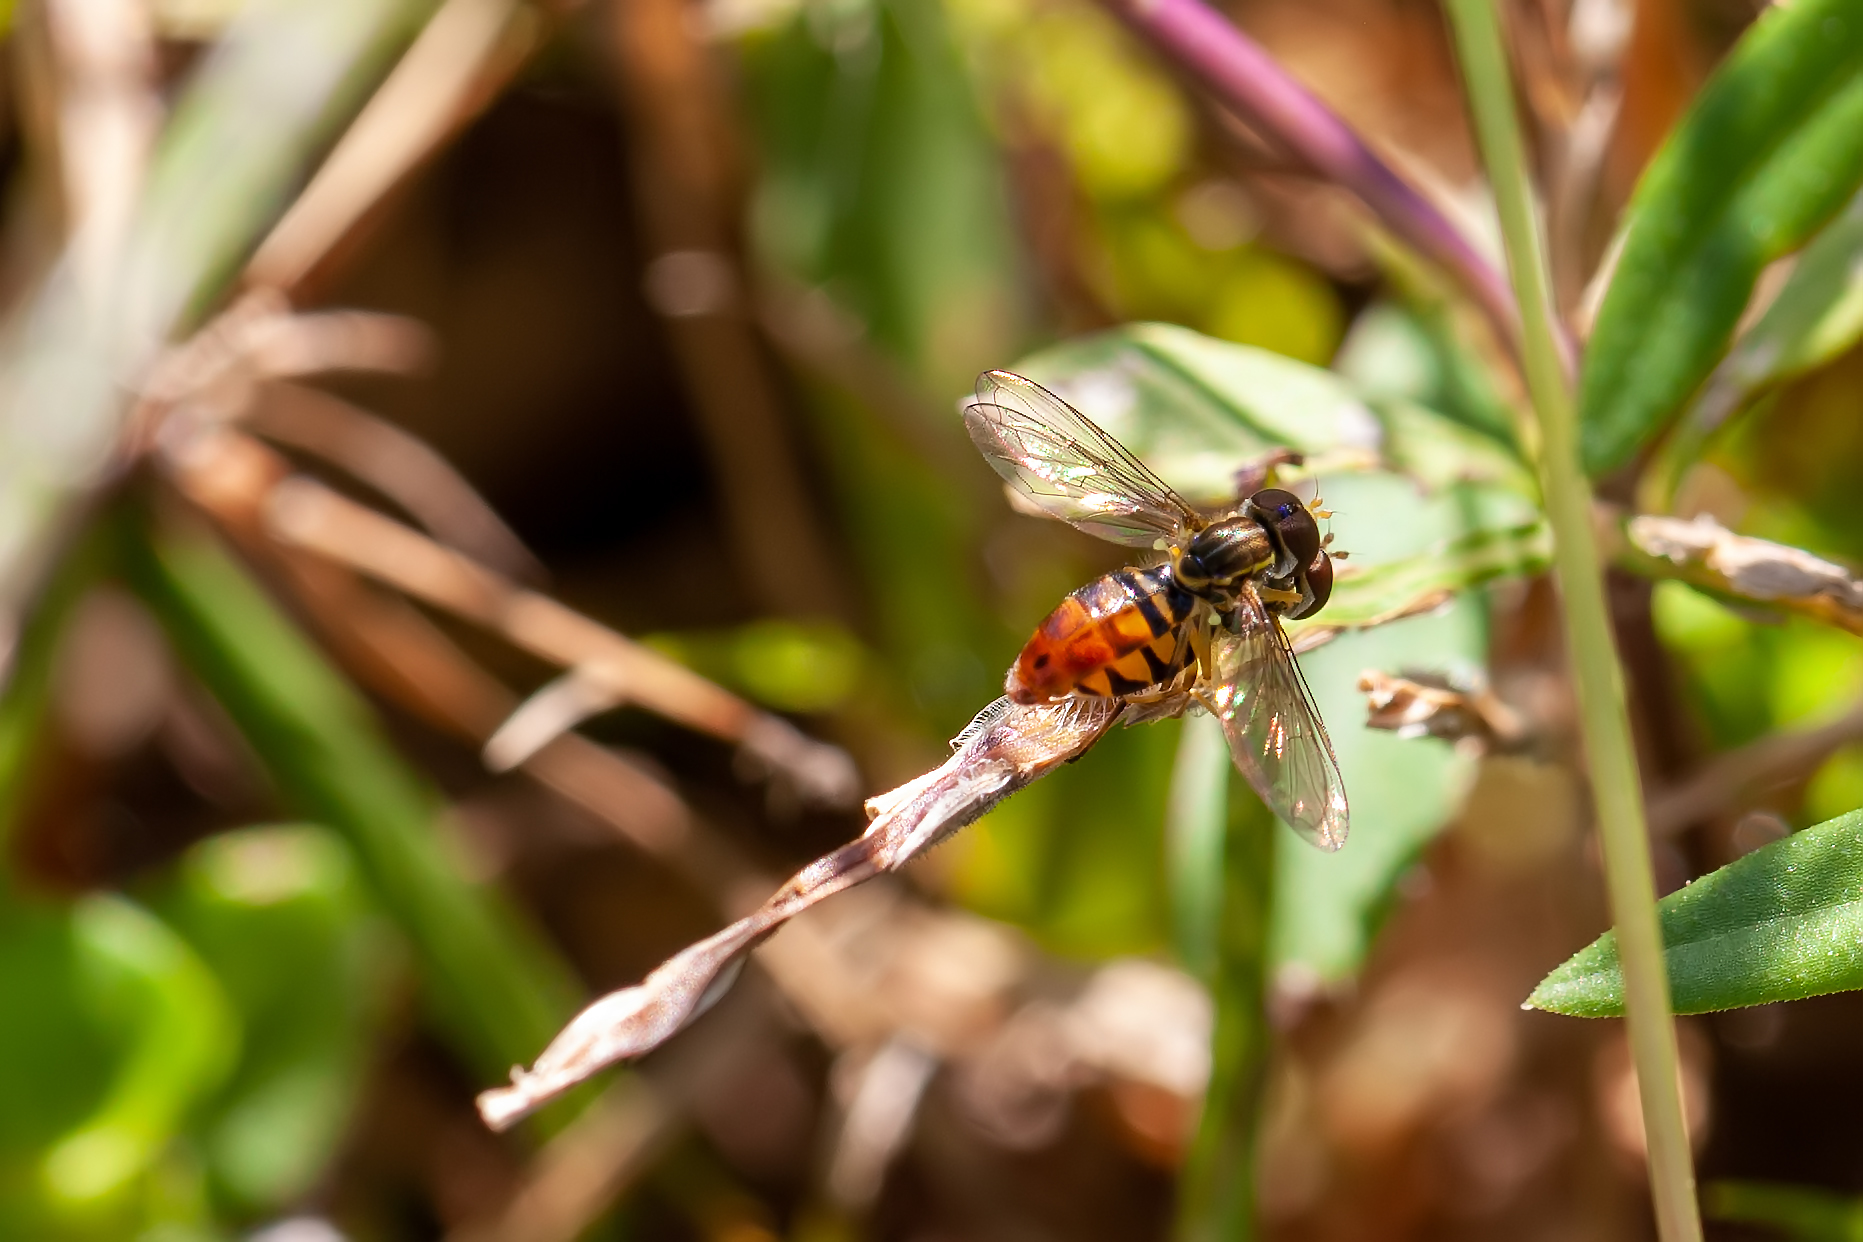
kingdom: Animalia
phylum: Arthropoda
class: Insecta
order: Diptera
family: Syrphidae
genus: Toxomerus
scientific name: Toxomerus floralis
